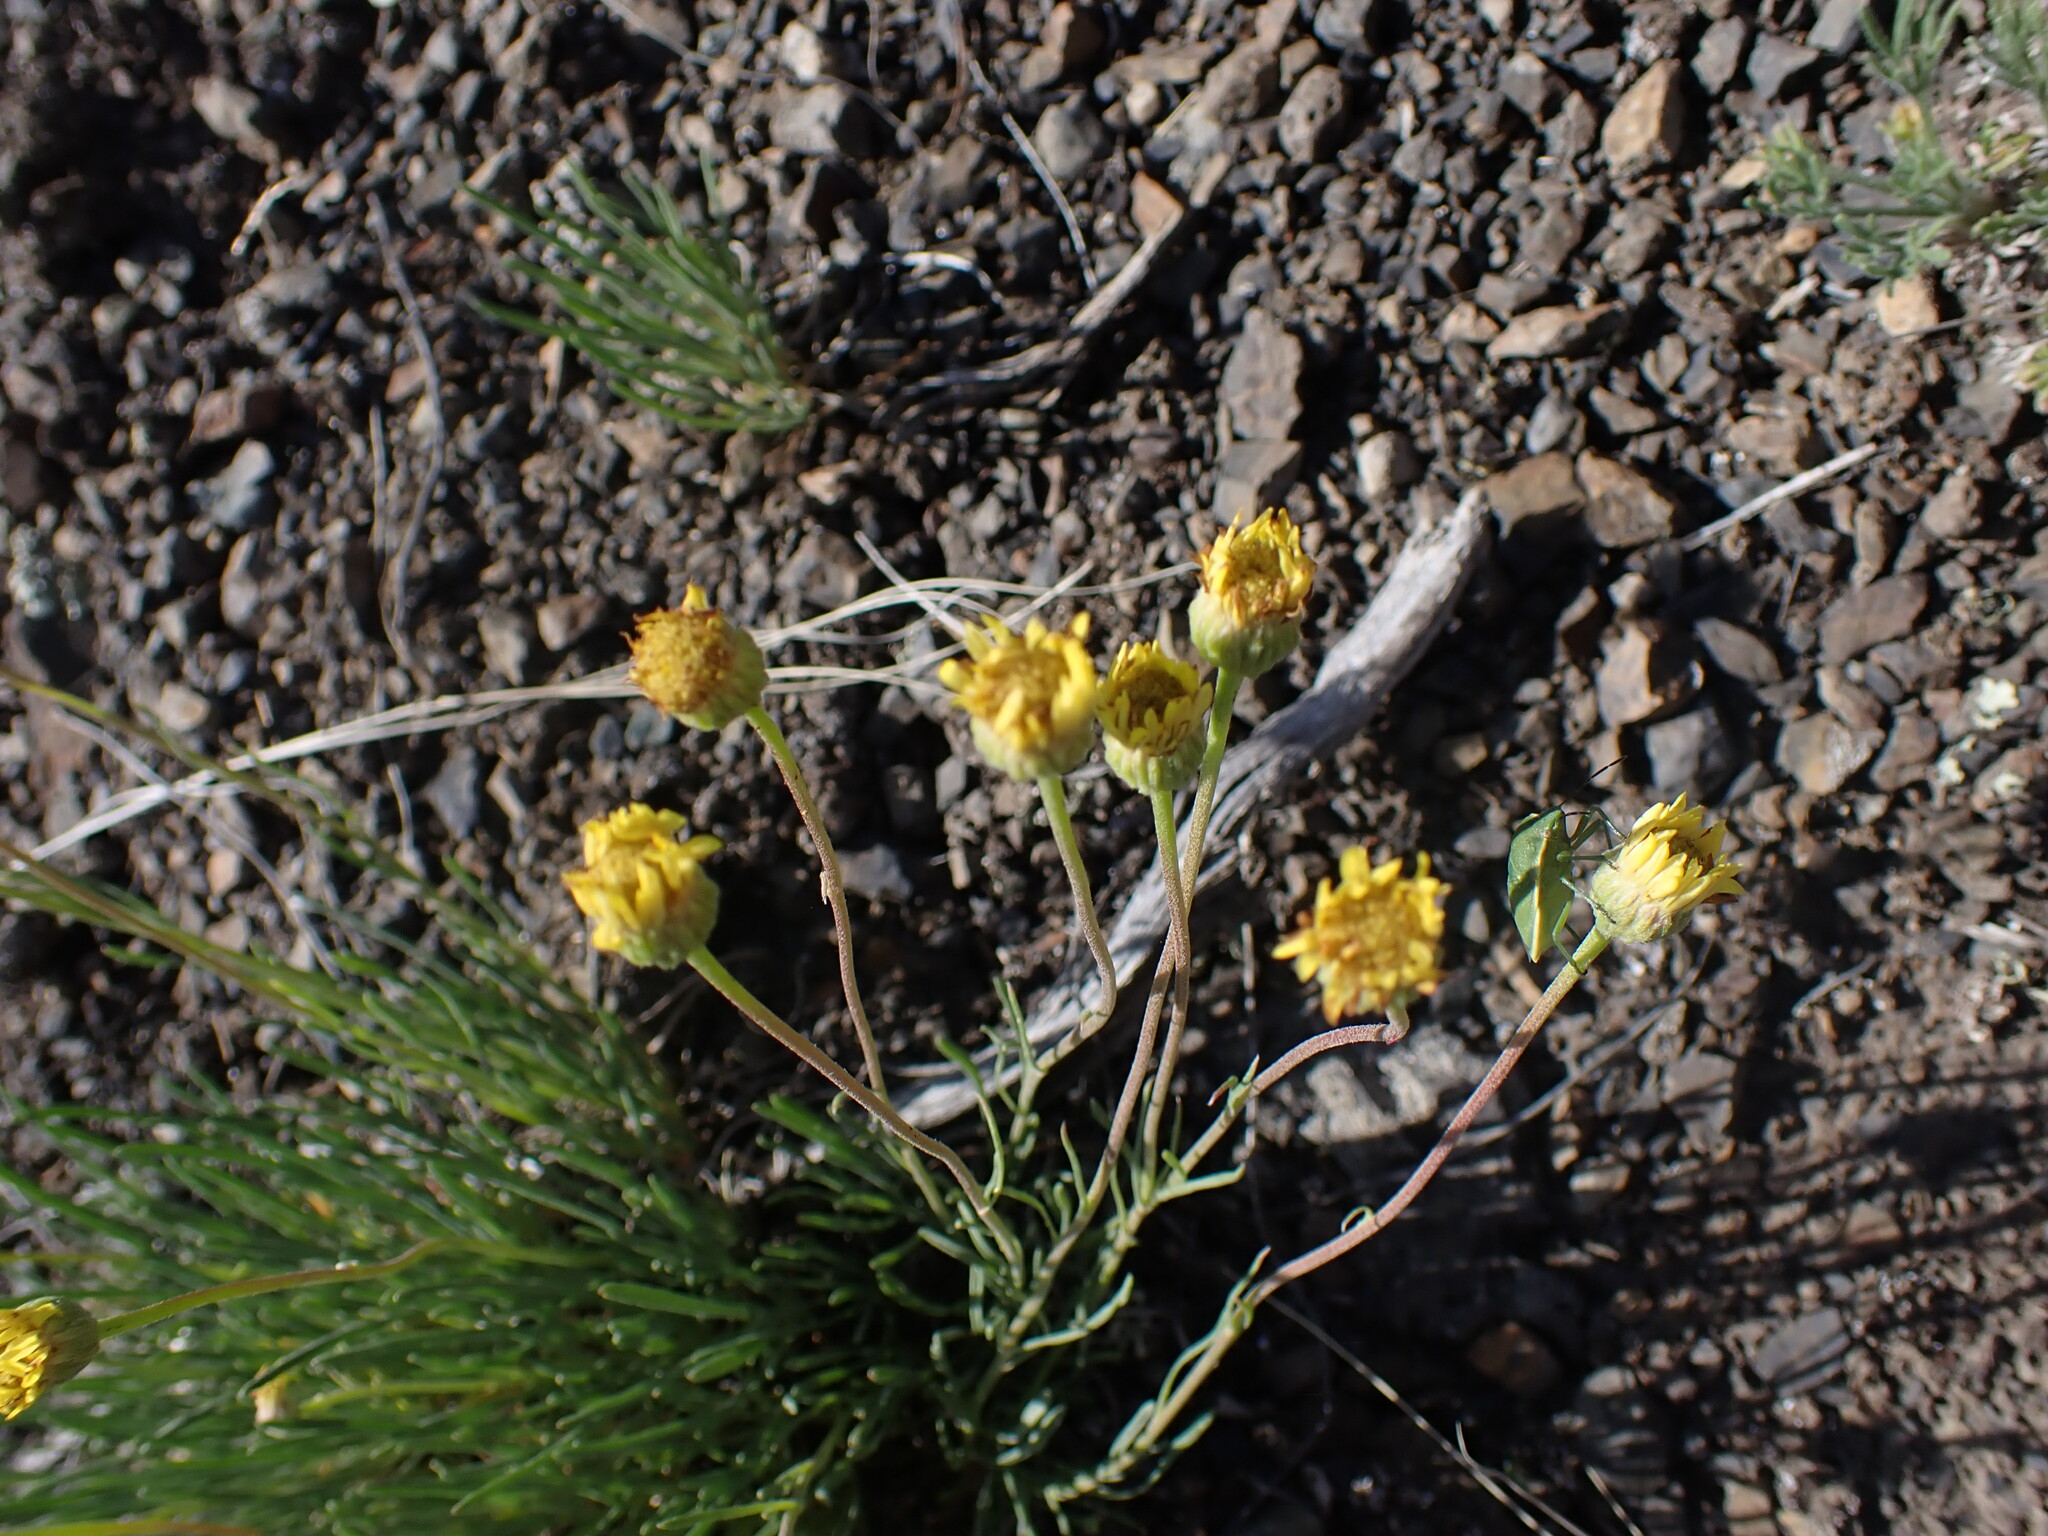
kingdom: Plantae
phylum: Tracheophyta
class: Magnoliopsida
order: Asterales
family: Asteraceae
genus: Erigeron
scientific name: Erigeron linearis
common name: Desert yellow fleabane
